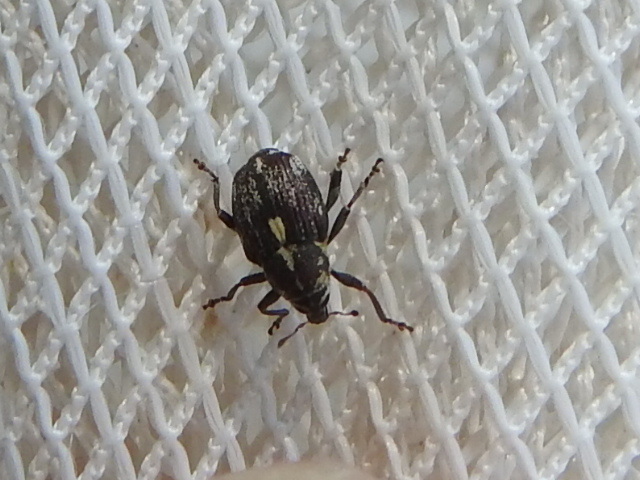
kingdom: Animalia
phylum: Arthropoda
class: Insecta
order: Coleoptera
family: Curculionidae
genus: Rhinoncus
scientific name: Rhinoncus longulus
